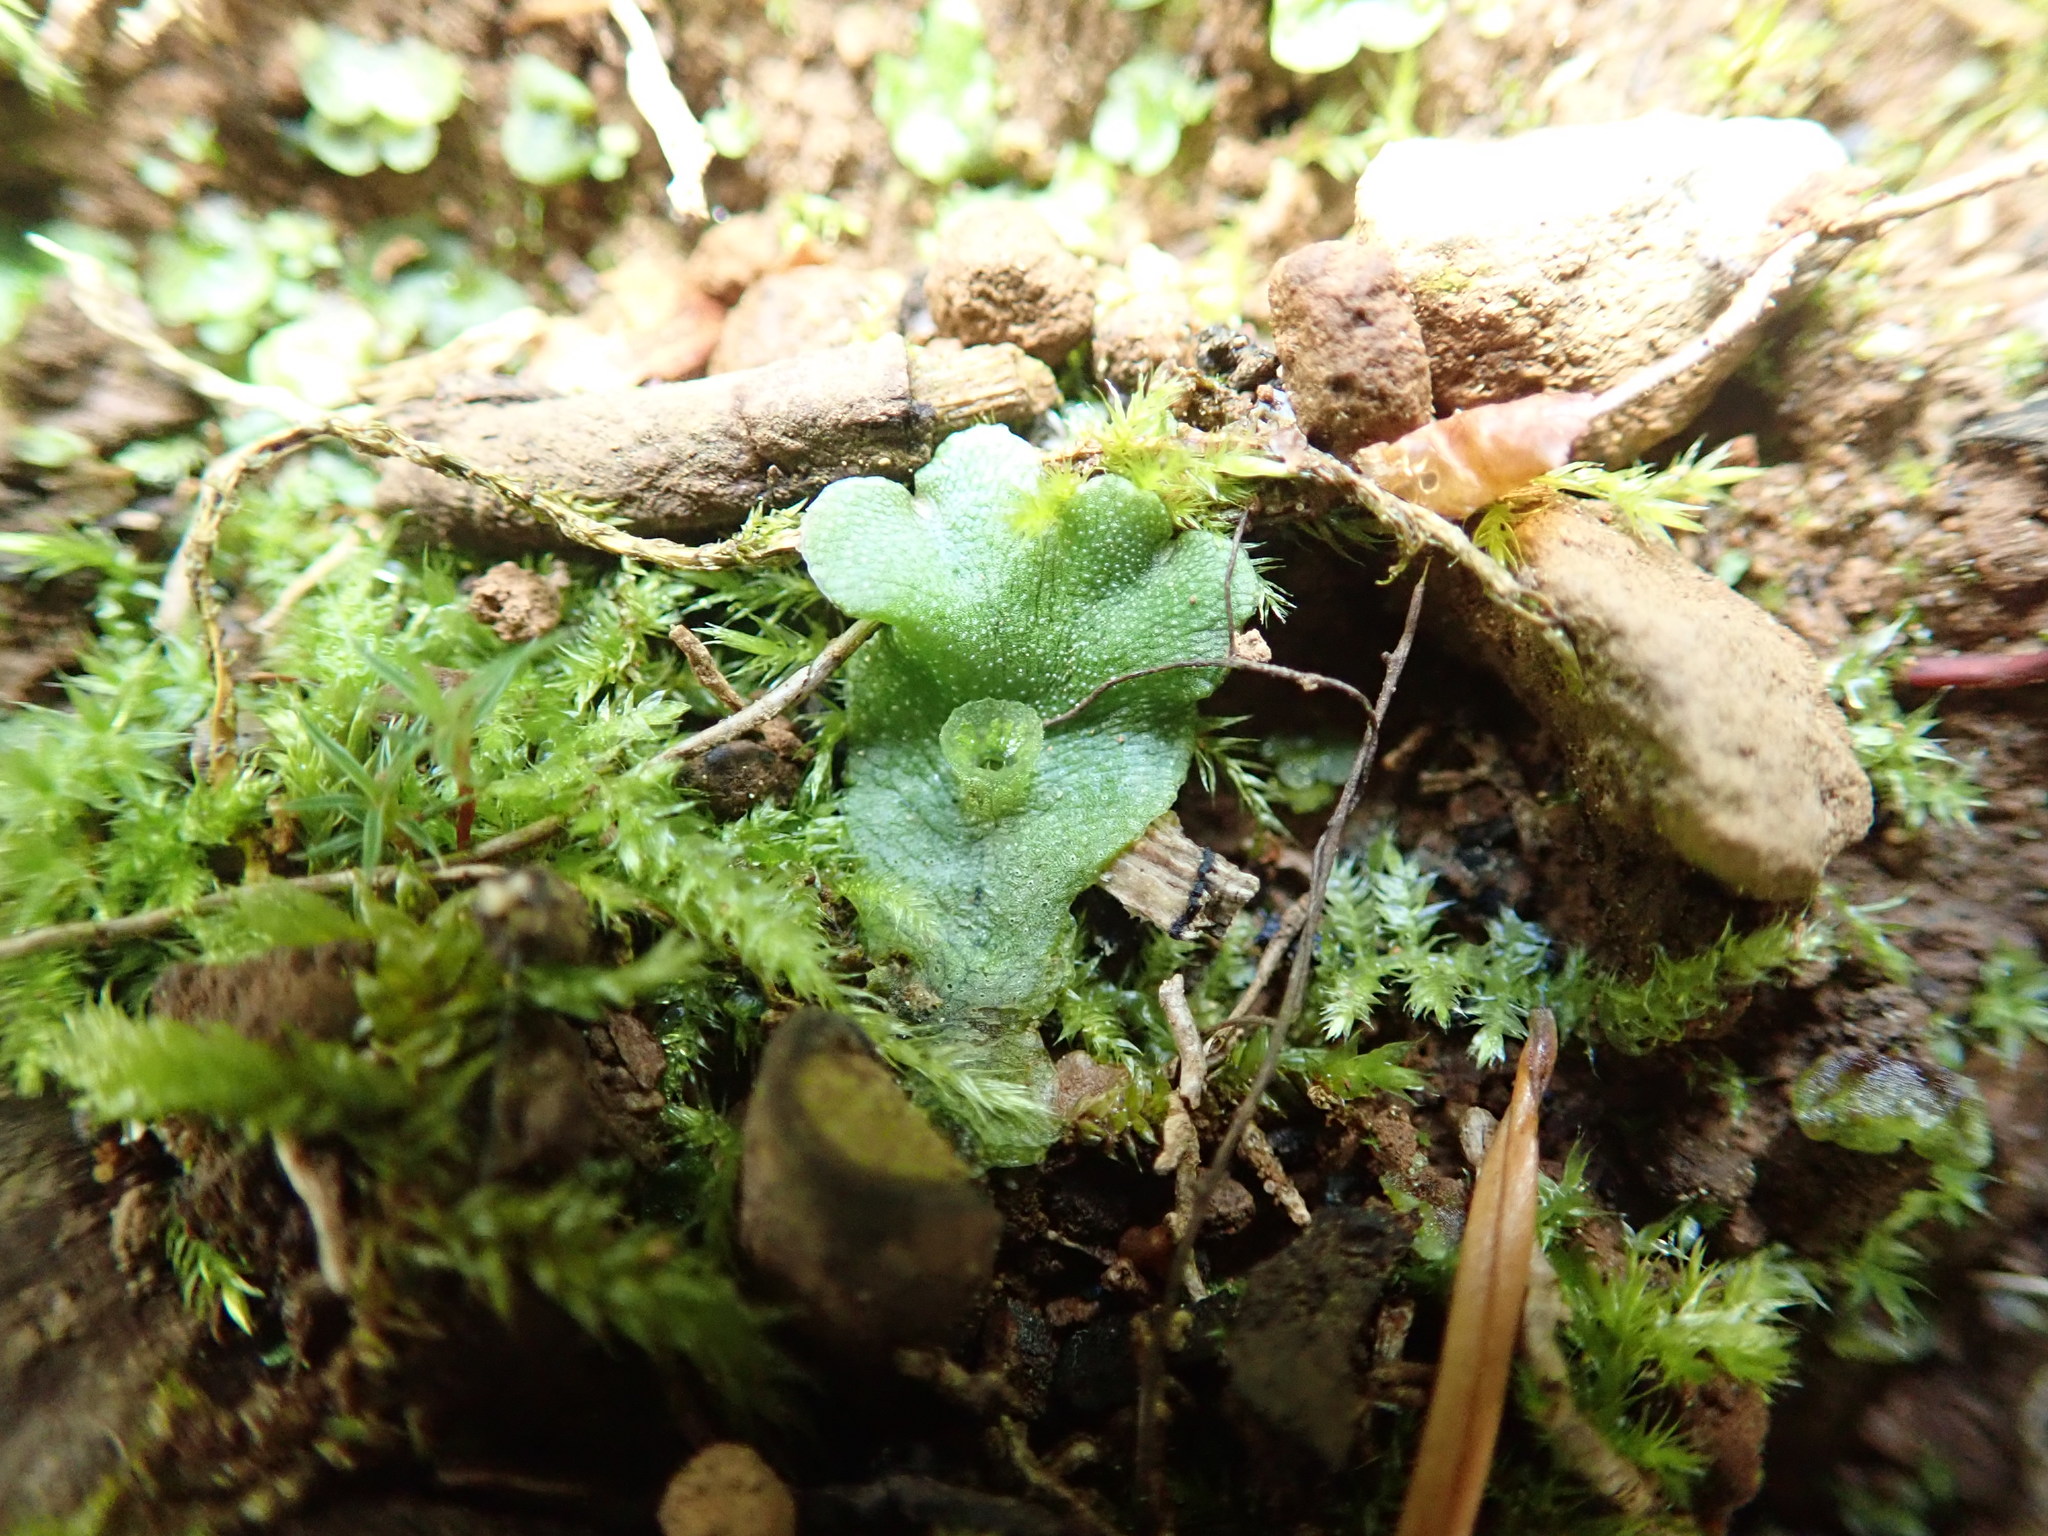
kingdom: Plantae
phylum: Marchantiophyta
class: Marchantiopsida
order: Marchantiales
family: Marchantiaceae
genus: Marchantia
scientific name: Marchantia polymorpha
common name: Common liverwort
